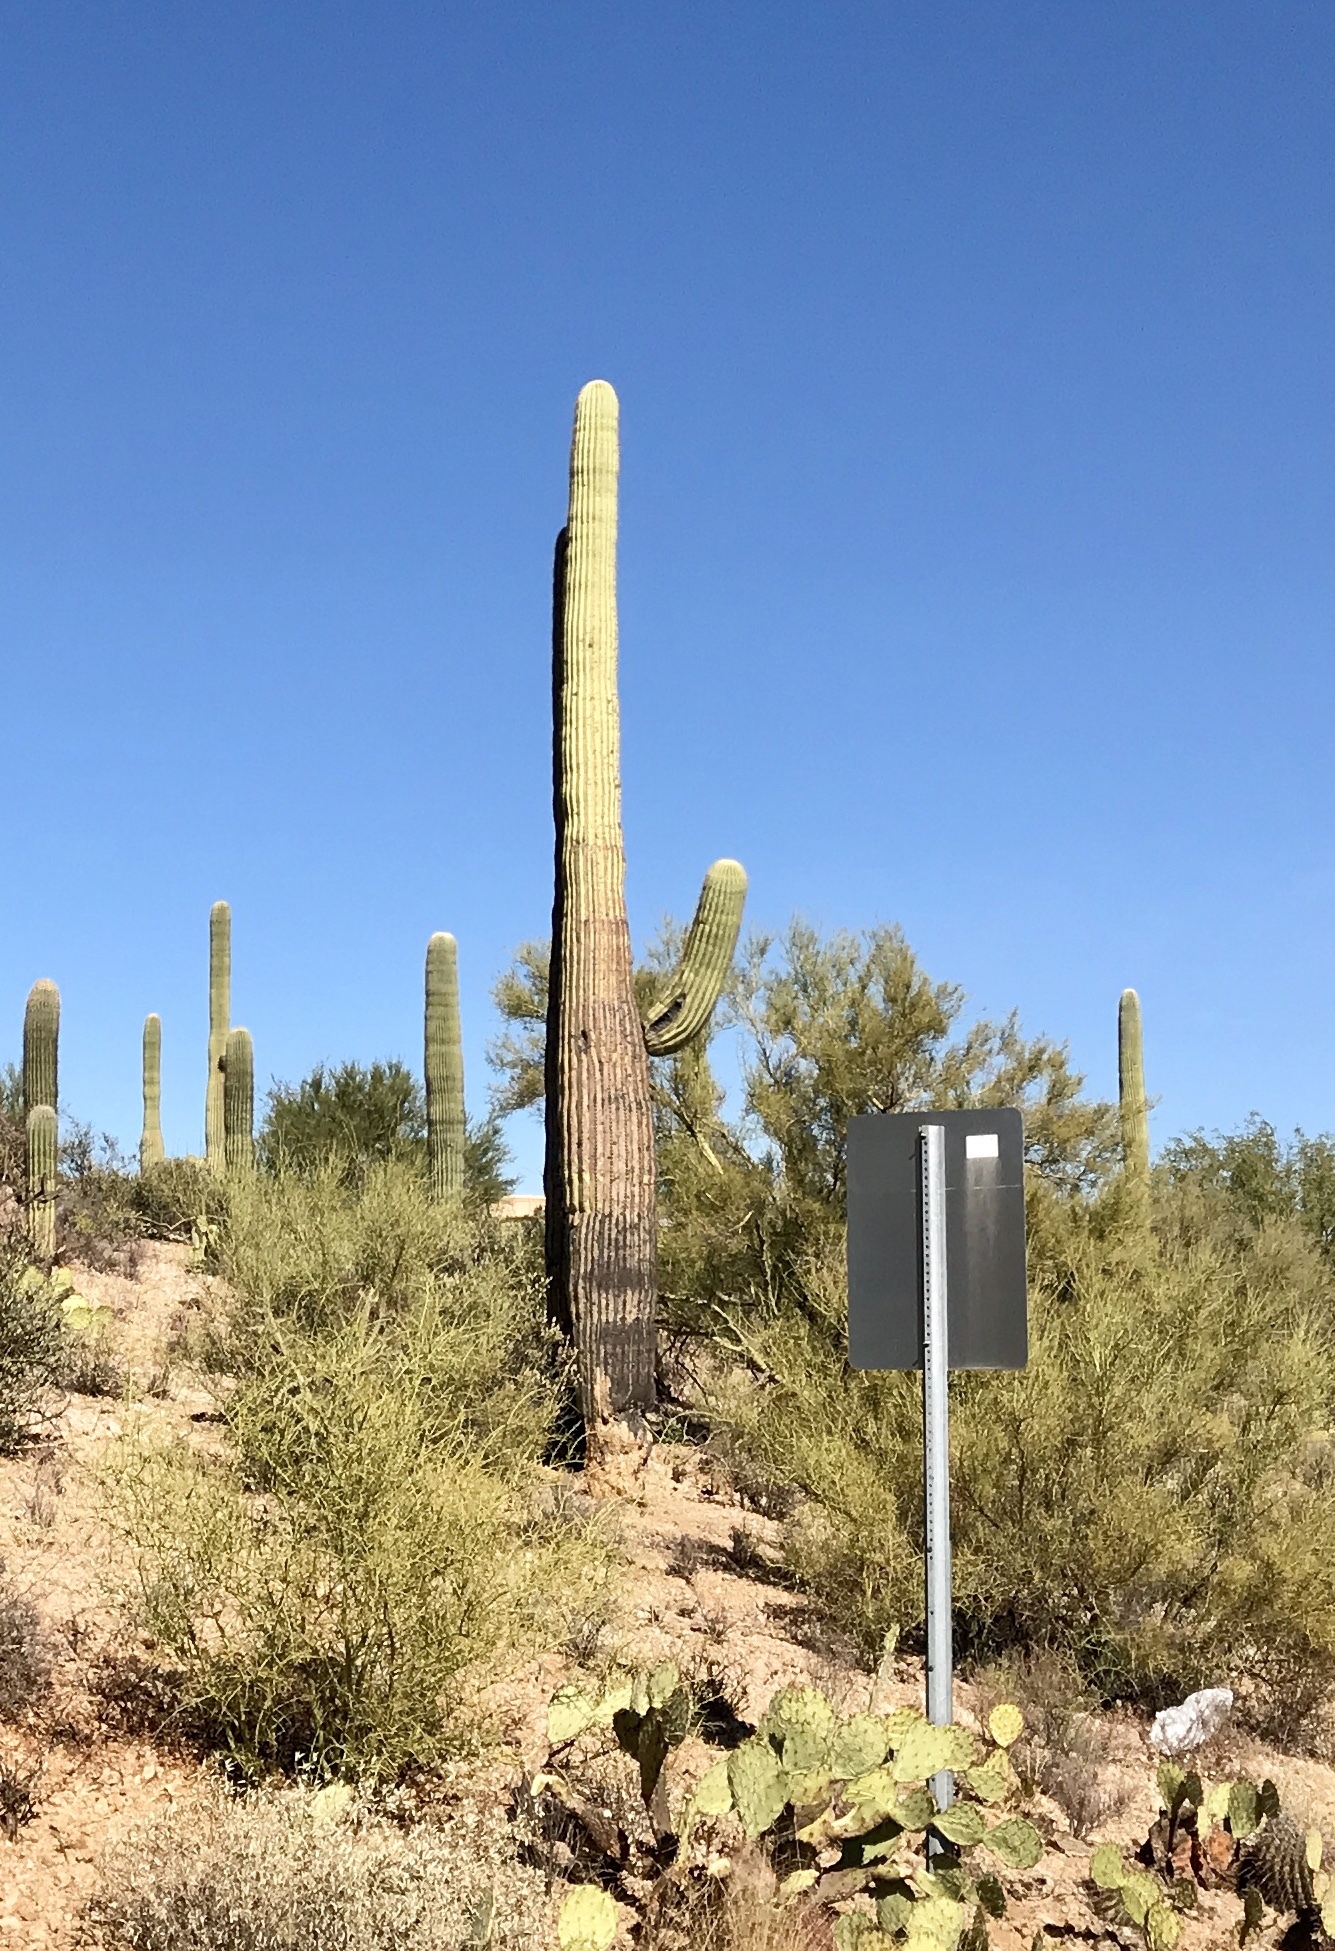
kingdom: Plantae
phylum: Tracheophyta
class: Magnoliopsida
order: Caryophyllales
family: Cactaceae
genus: Carnegiea
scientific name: Carnegiea gigantea
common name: Saguaro
